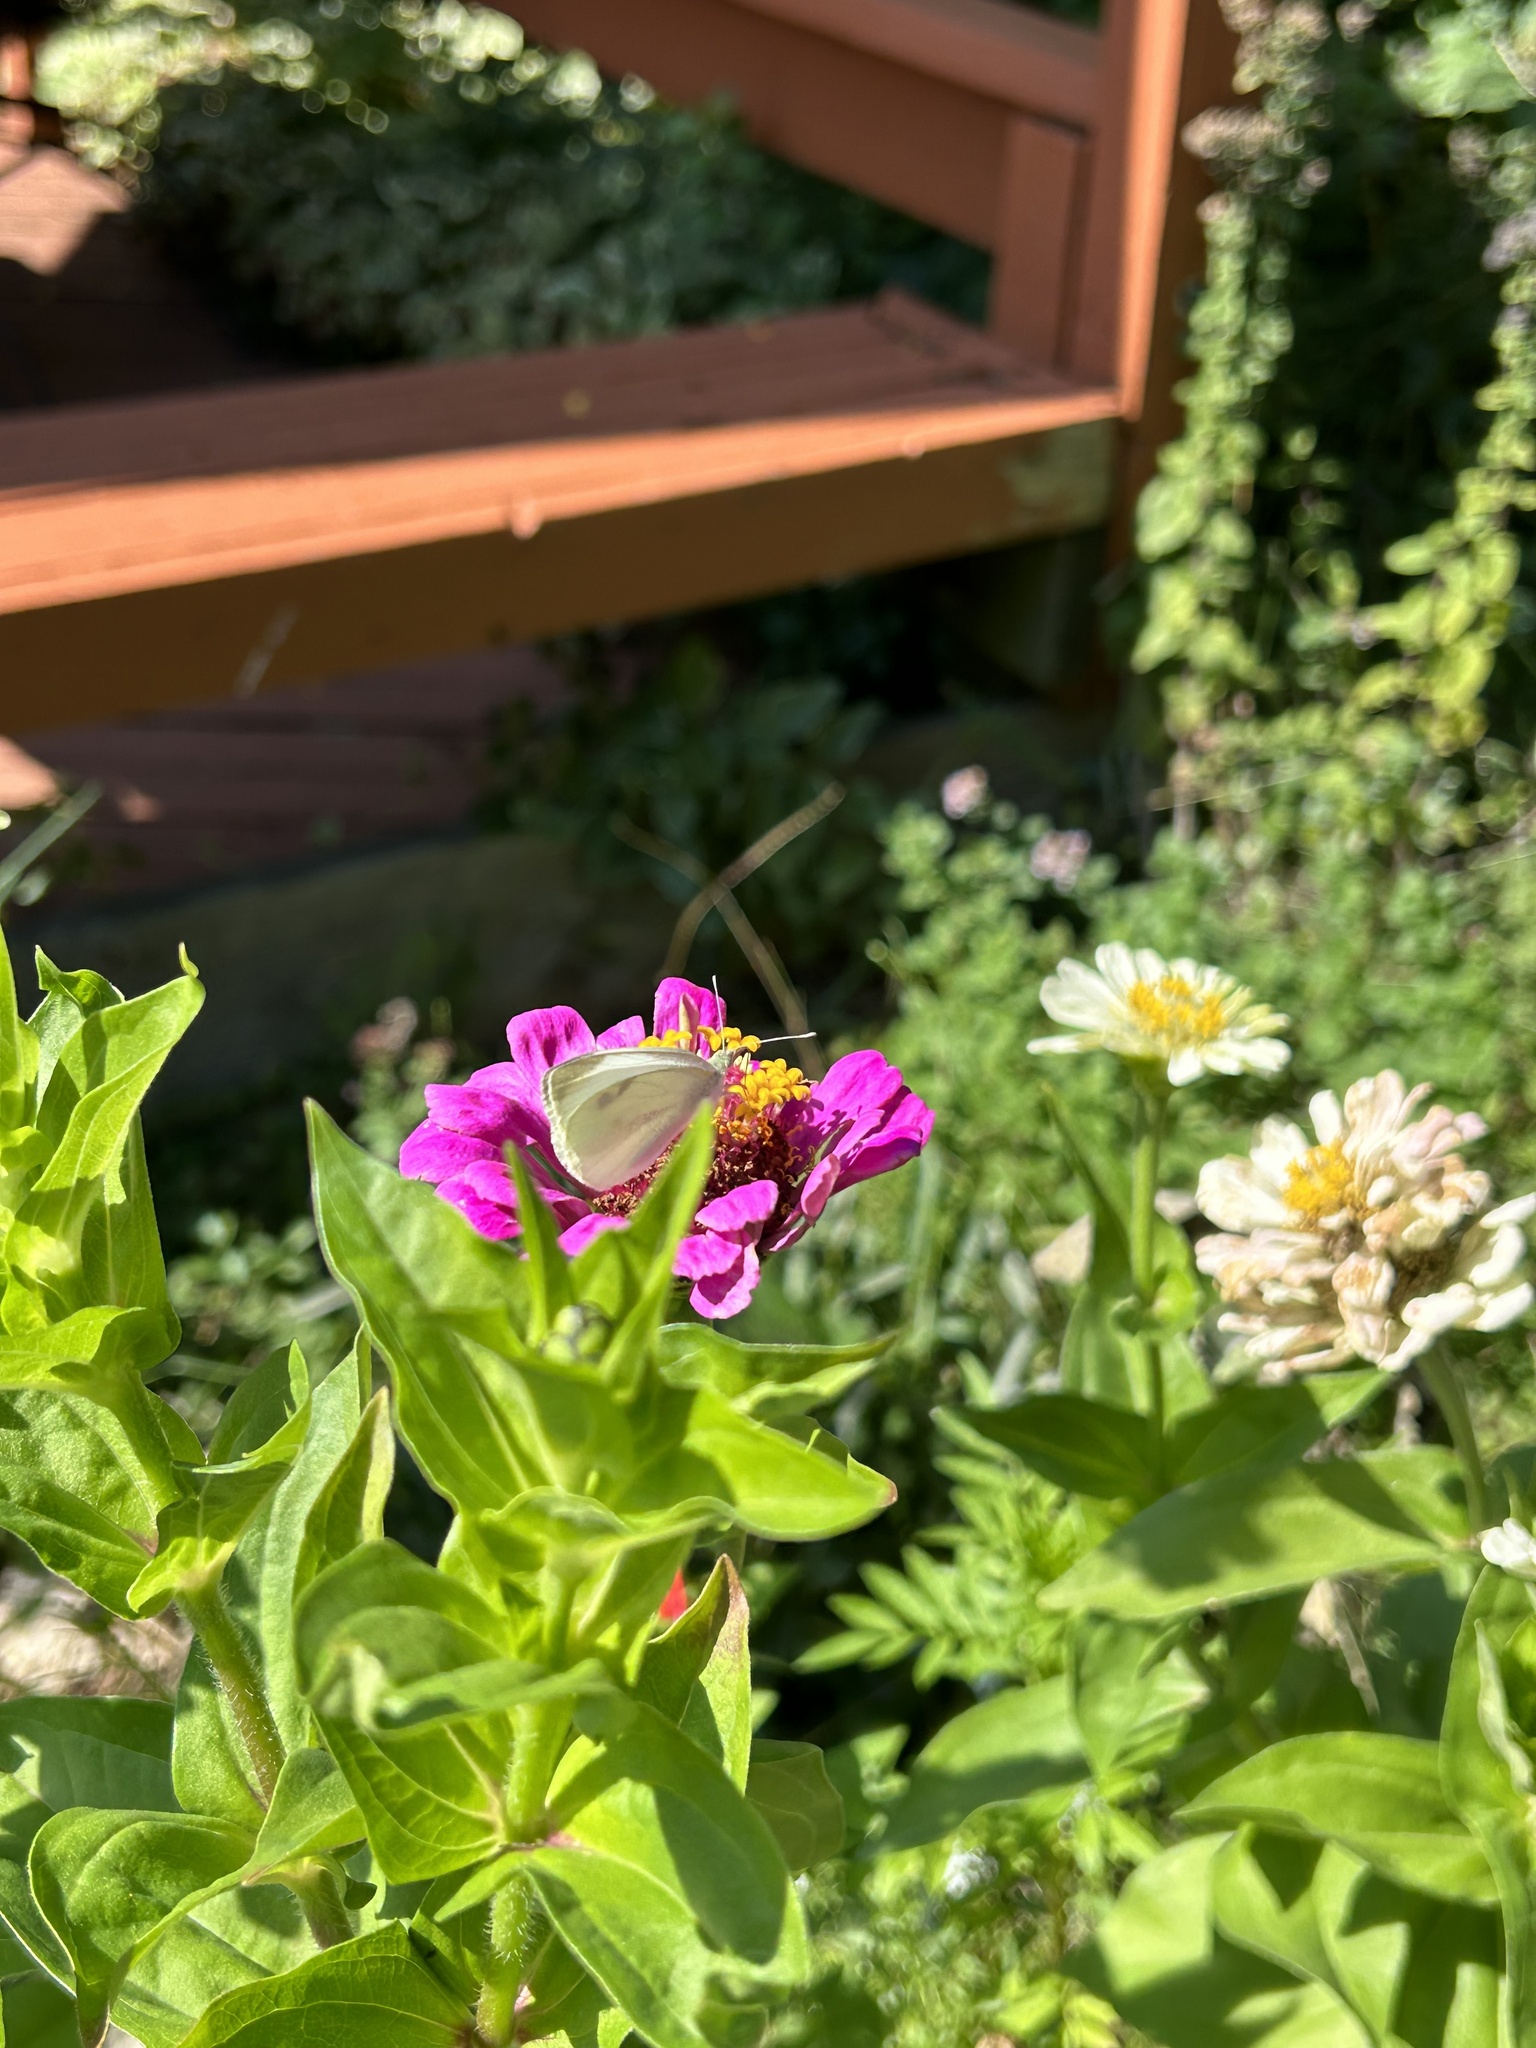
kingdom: Animalia
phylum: Arthropoda
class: Insecta
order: Lepidoptera
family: Pieridae
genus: Pieris
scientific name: Pieris rapae
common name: Small white
